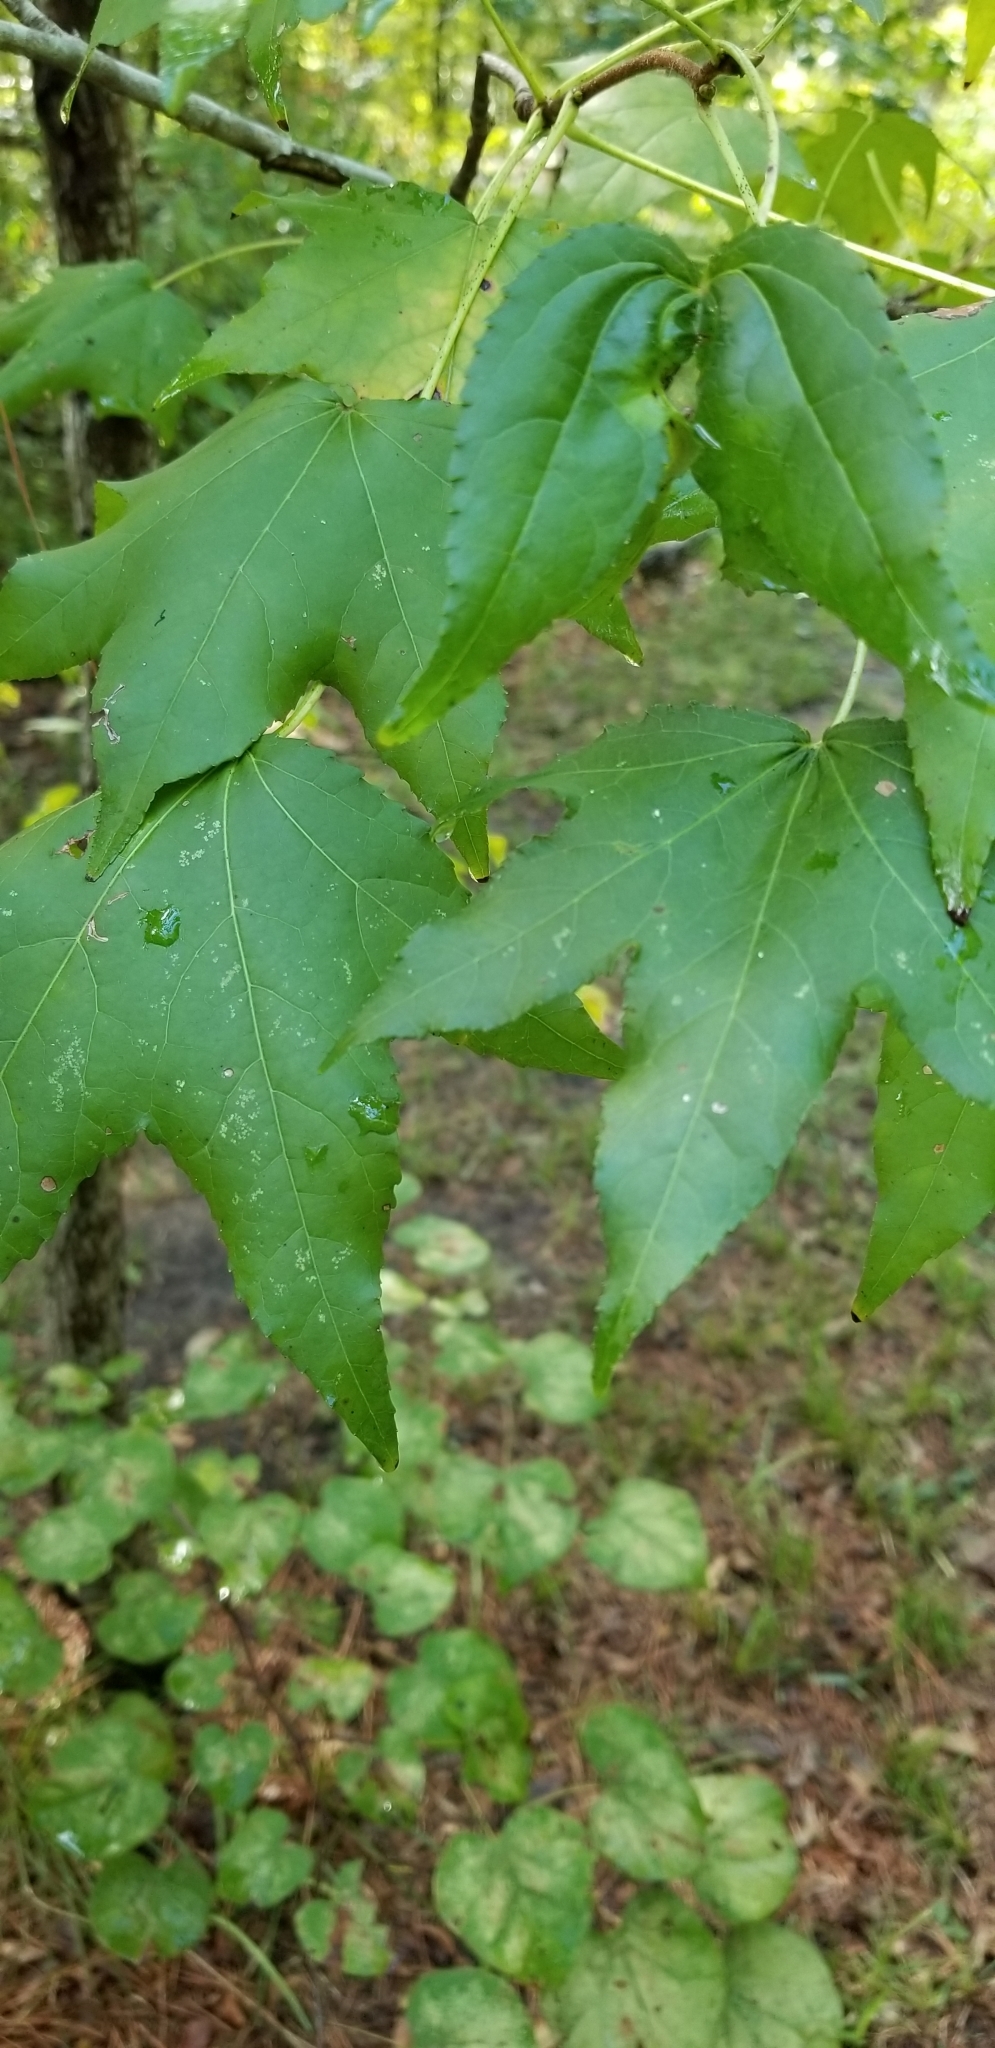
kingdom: Plantae
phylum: Tracheophyta
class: Magnoliopsida
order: Saxifragales
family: Altingiaceae
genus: Liquidambar
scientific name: Liquidambar styraciflua
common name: Sweet gum
